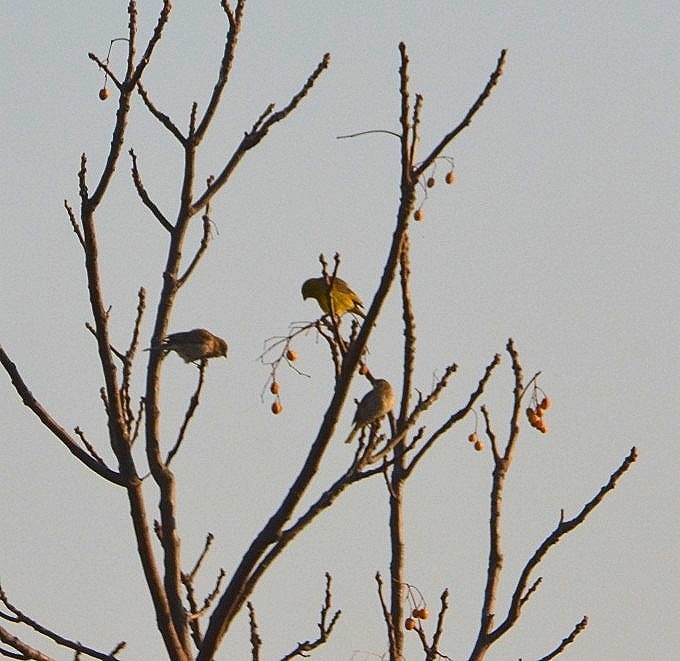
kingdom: Animalia
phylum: Chordata
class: Aves
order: Passeriformes
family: Thraupidae
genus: Sicalis
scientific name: Sicalis flaveola
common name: Saffron finch
